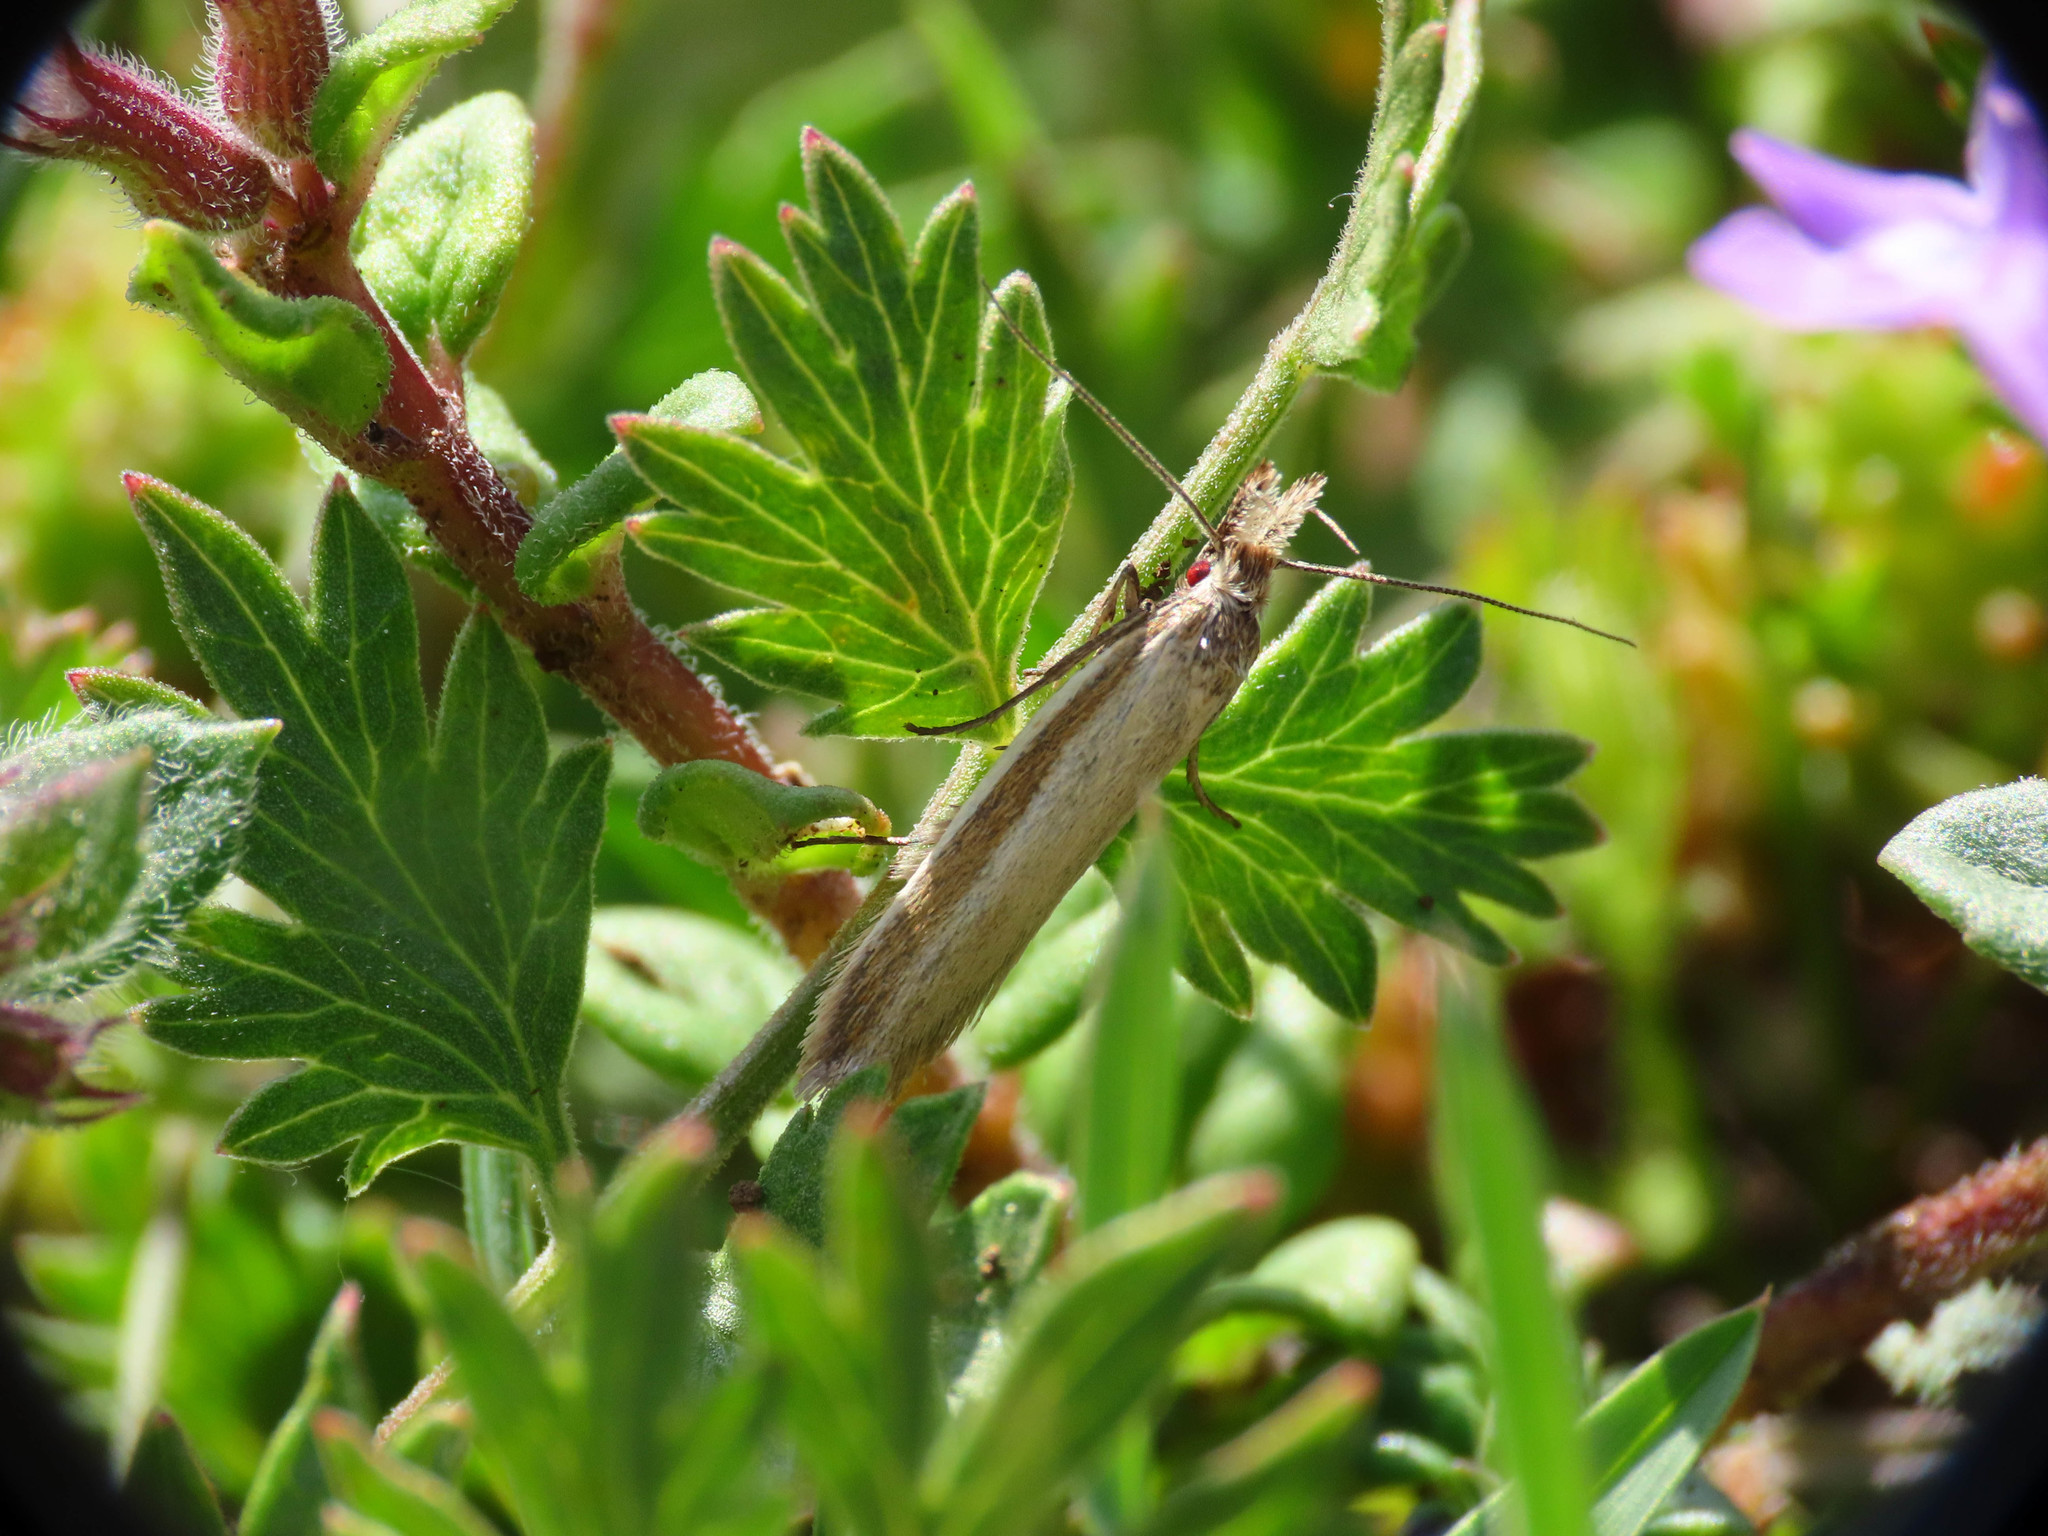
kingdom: Animalia
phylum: Arthropoda
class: Insecta
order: Lepidoptera
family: Oecophoridae
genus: Pleurota
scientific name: Pleurota pyropella
